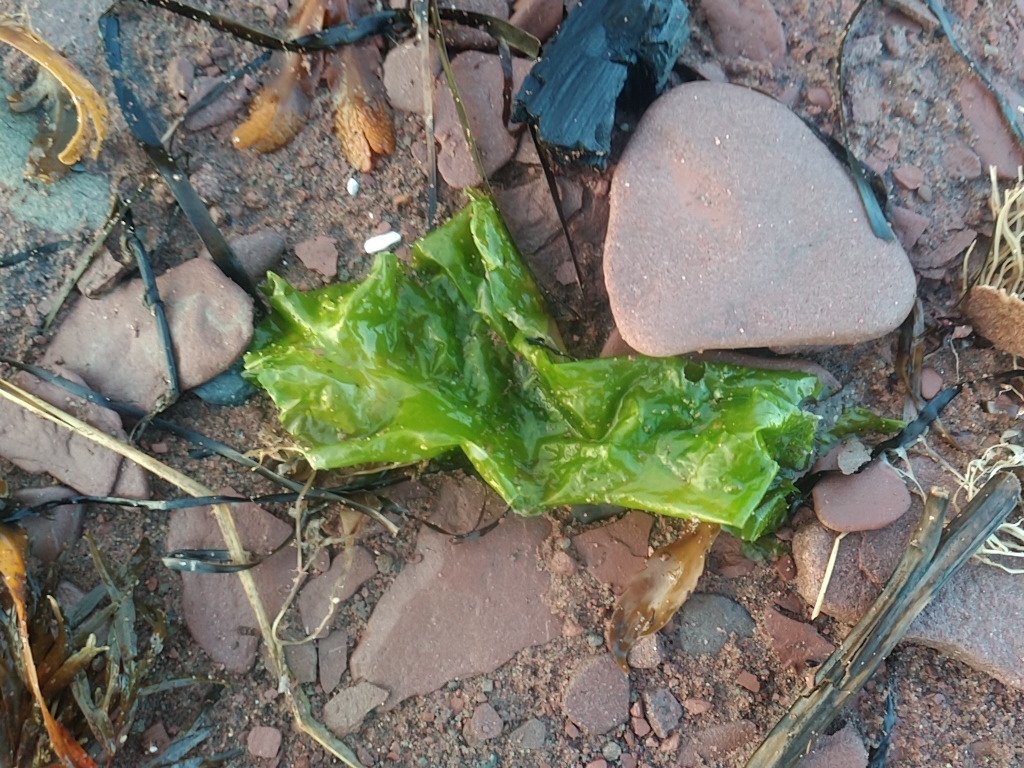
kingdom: Plantae
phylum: Chlorophyta
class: Ulvophyceae
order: Ulvales
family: Ulvaceae
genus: Ulva
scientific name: Ulva lactuca
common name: Sea lettuce
